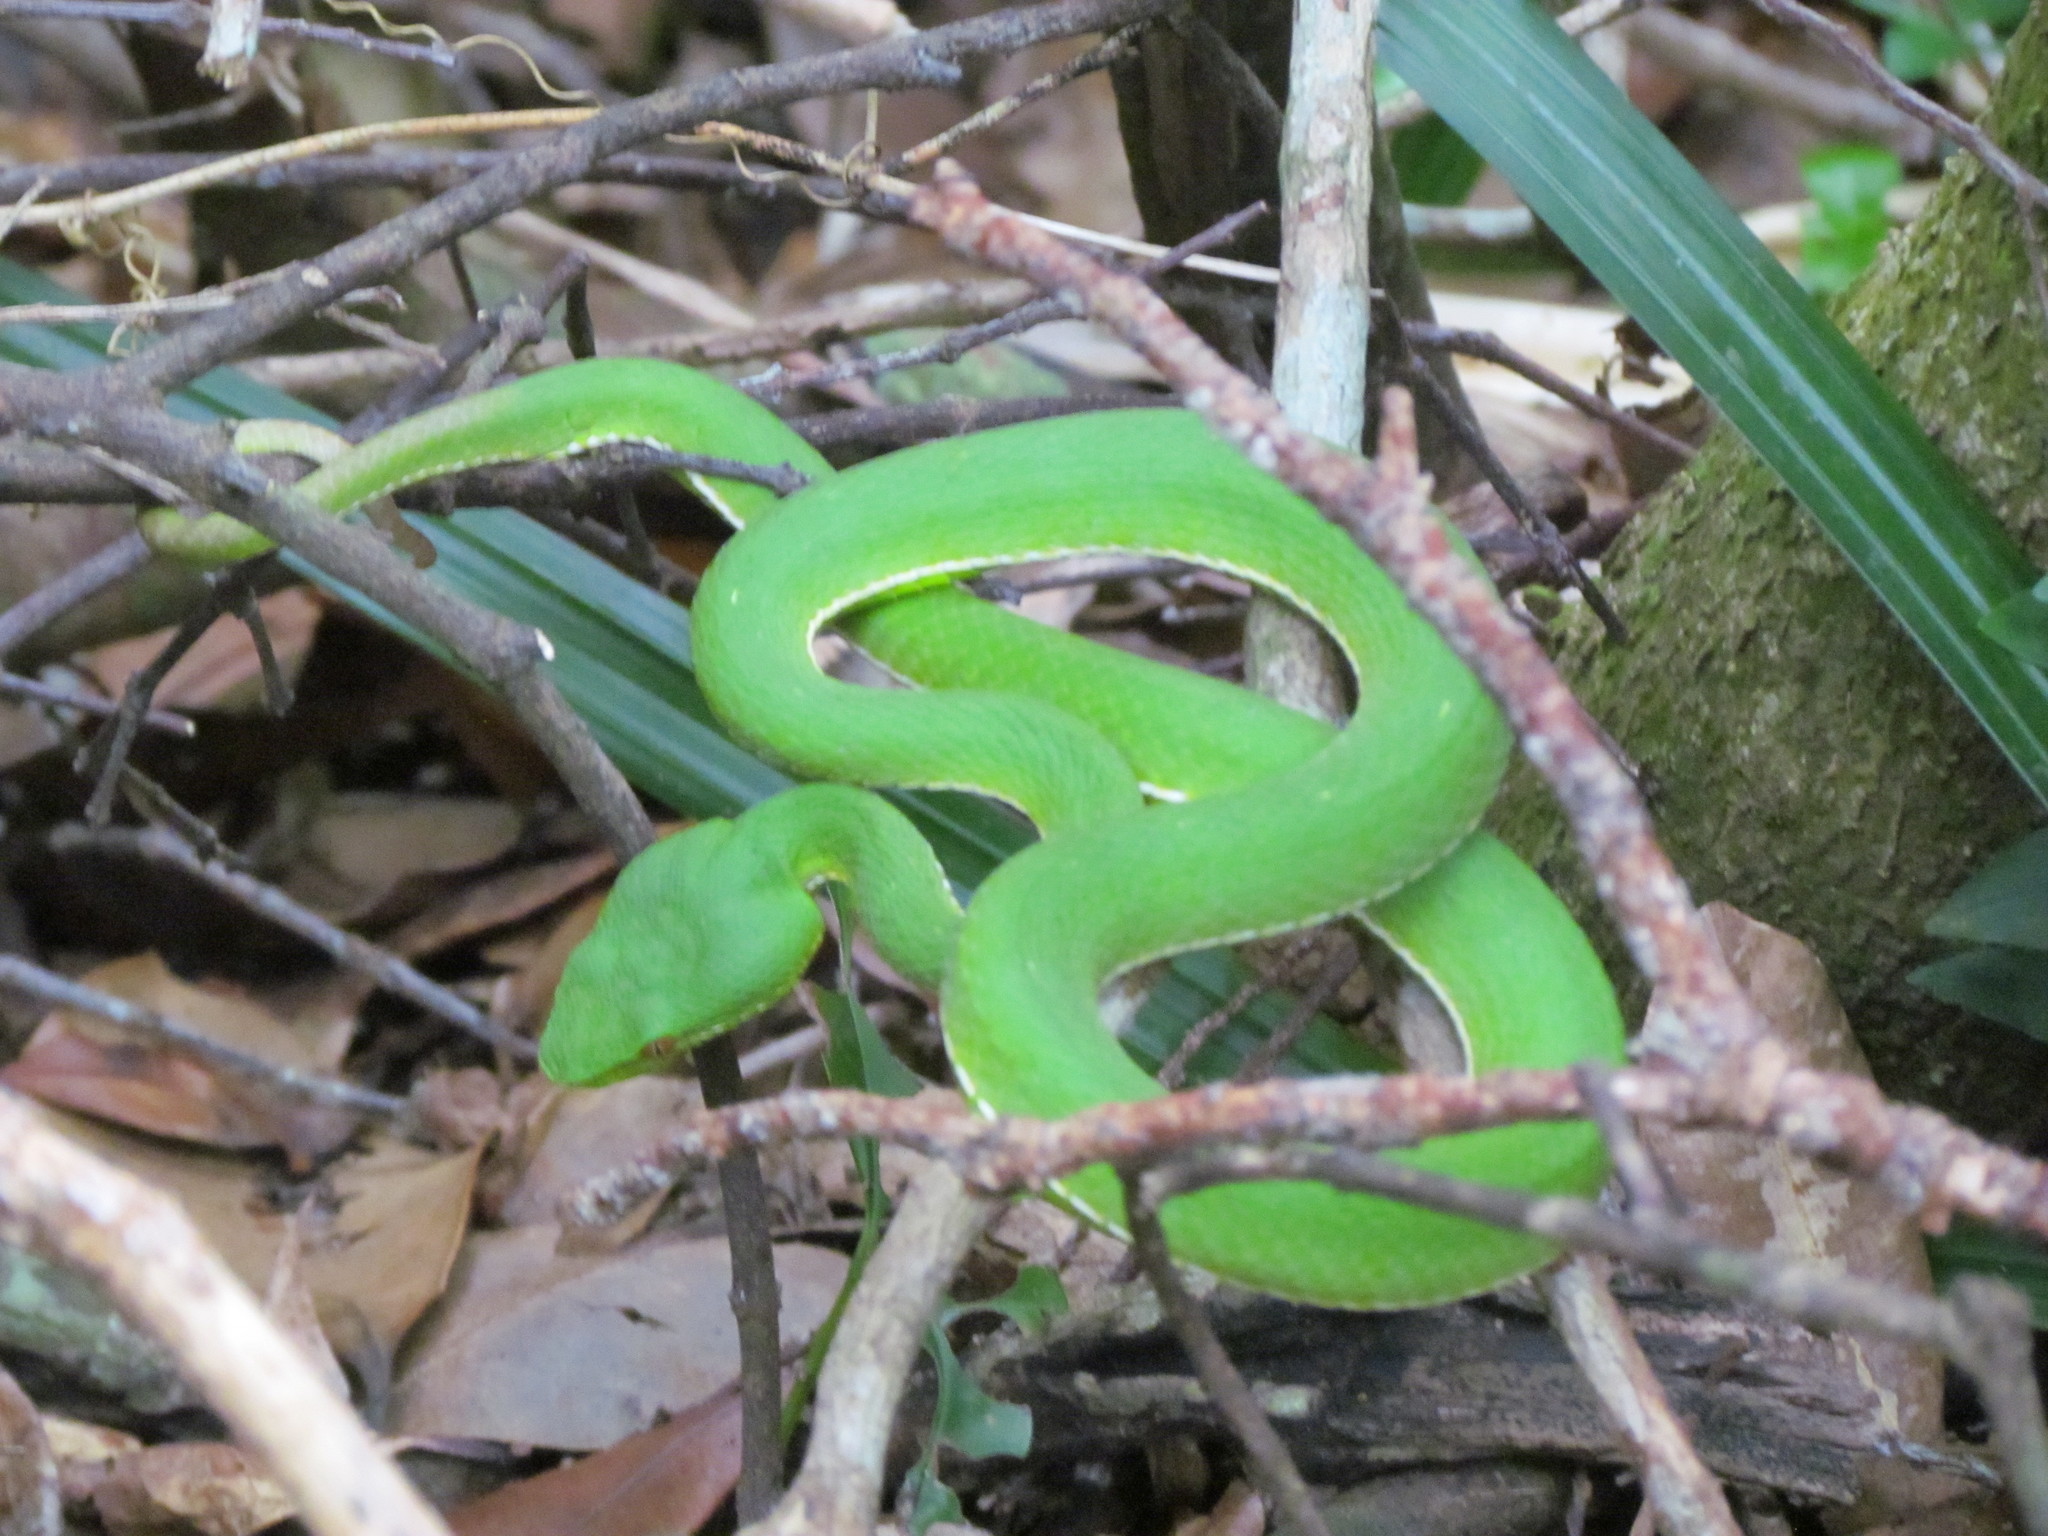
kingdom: Animalia
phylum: Chordata
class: Squamata
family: Viperidae
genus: Trimeresurus
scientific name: Trimeresurus stejnegeri
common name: Chen’s bamboo pit viper
